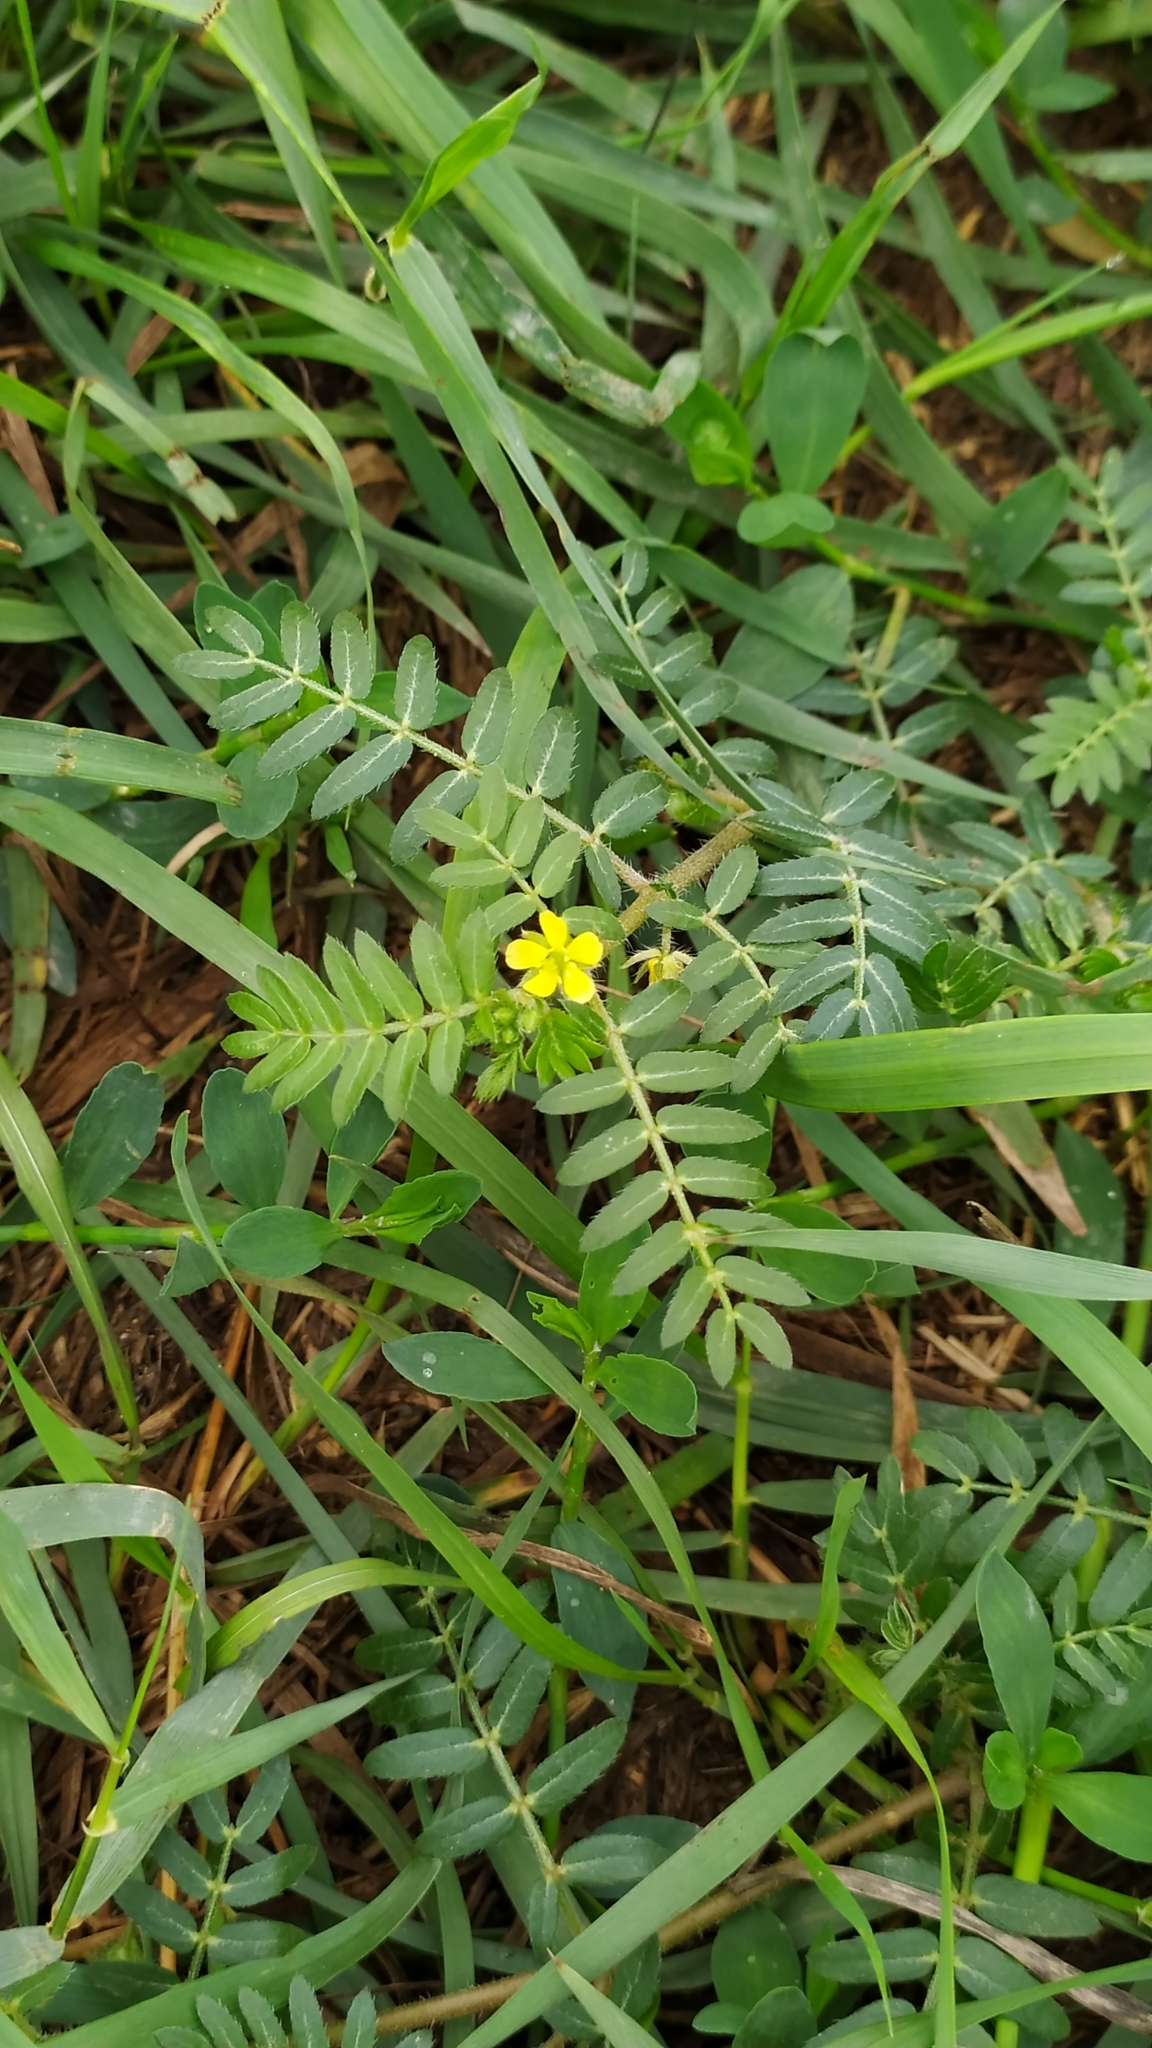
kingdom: Plantae
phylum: Tracheophyta
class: Magnoliopsida
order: Zygophyllales
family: Zygophyllaceae
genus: Tribulus
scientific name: Tribulus terrestris
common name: Puncturevine
